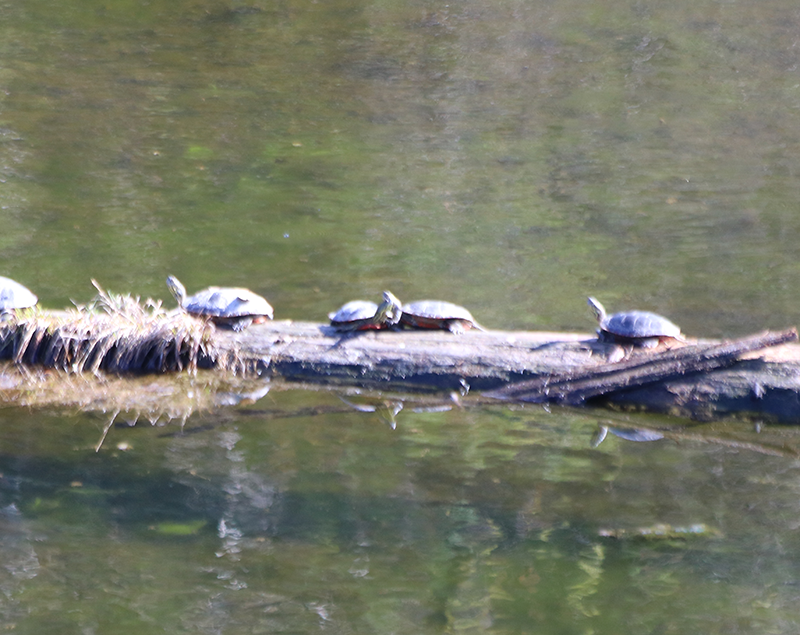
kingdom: Animalia
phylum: Chordata
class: Testudines
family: Emydidae
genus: Chrysemys
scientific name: Chrysemys picta
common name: Painted turtle
